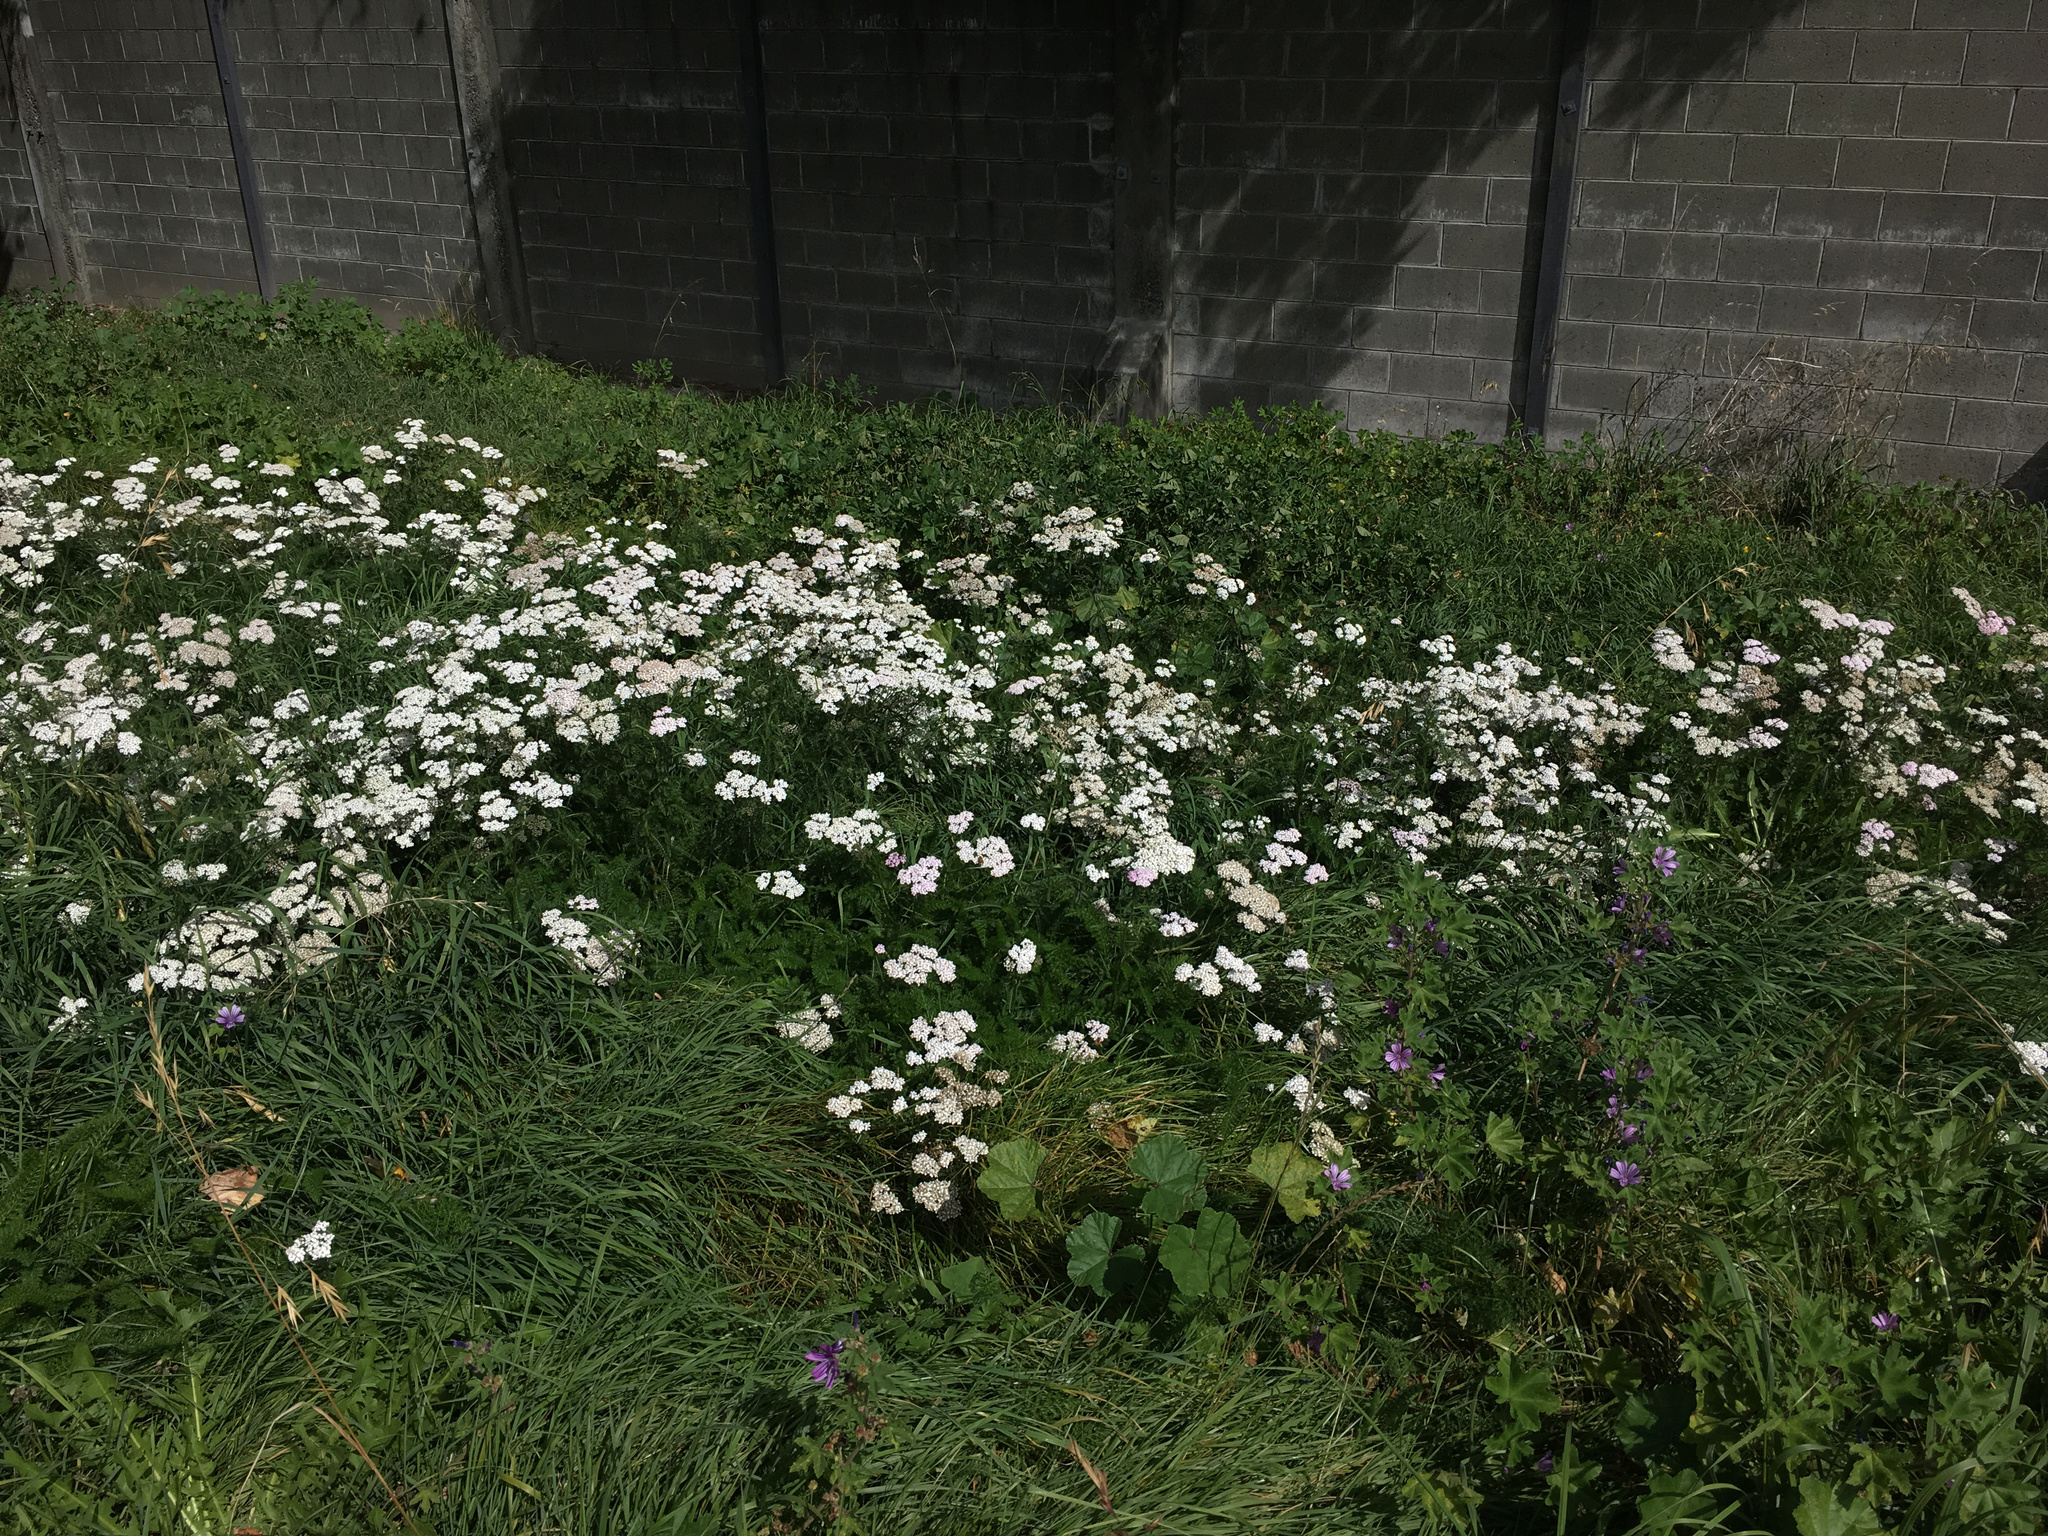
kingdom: Plantae
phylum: Tracheophyta
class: Magnoliopsida
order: Asterales
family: Asteraceae
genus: Achillea
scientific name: Achillea millefolium
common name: Yarrow
